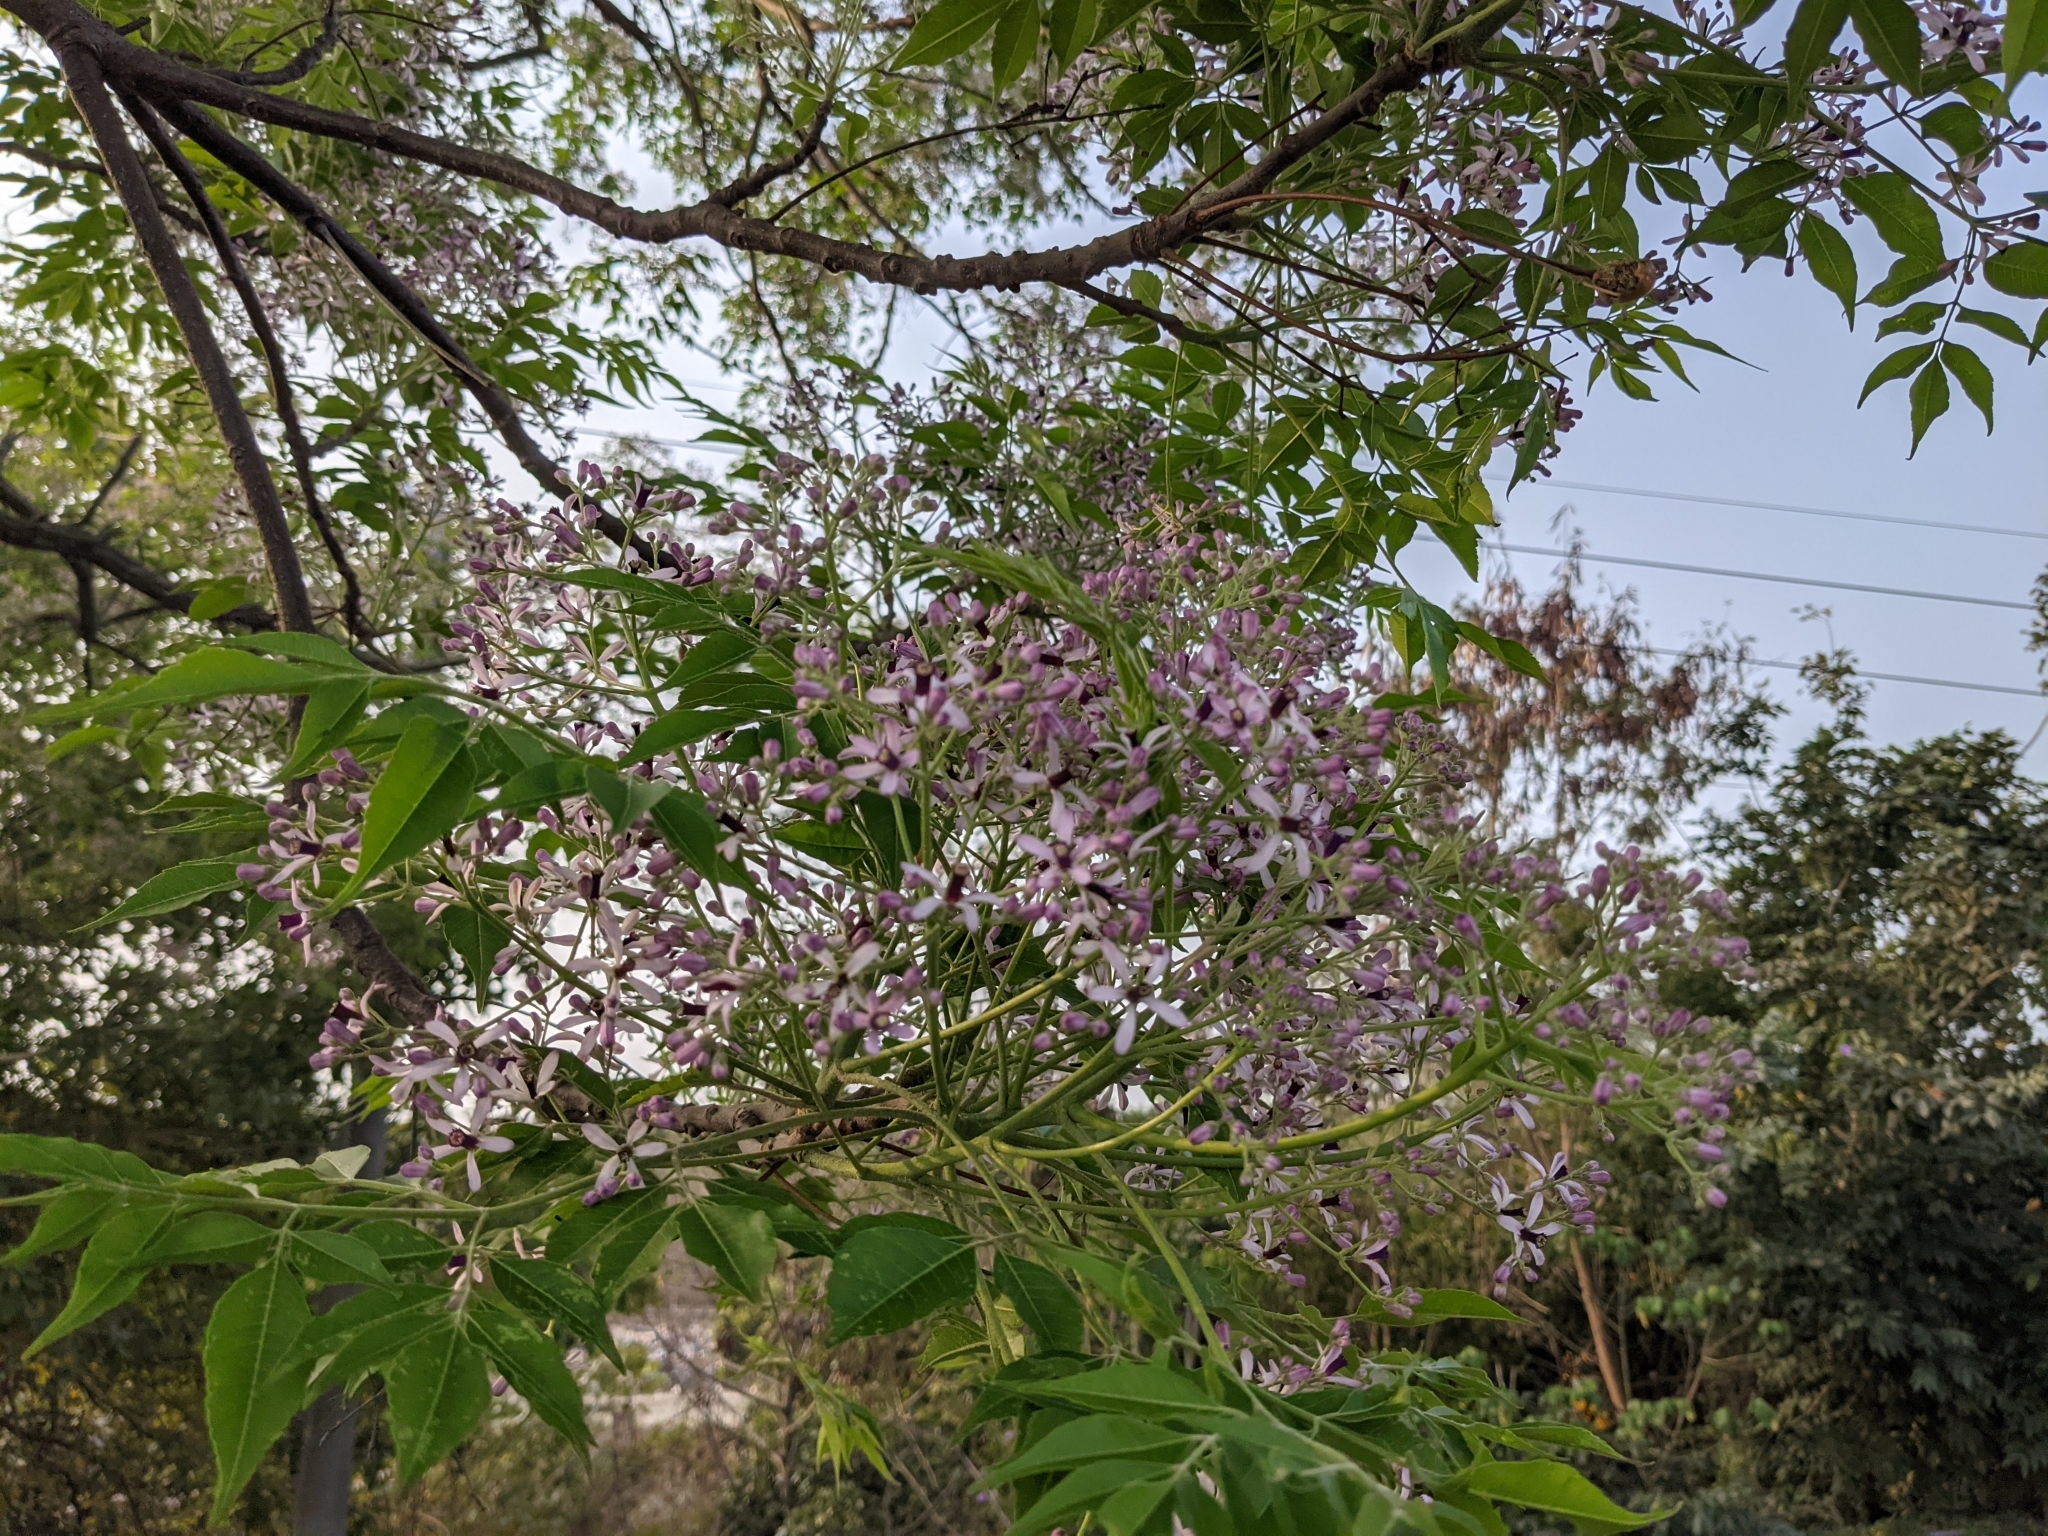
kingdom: Plantae
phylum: Tracheophyta
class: Magnoliopsida
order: Sapindales
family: Meliaceae
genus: Melia
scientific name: Melia azedarach
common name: Chinaberrytree
